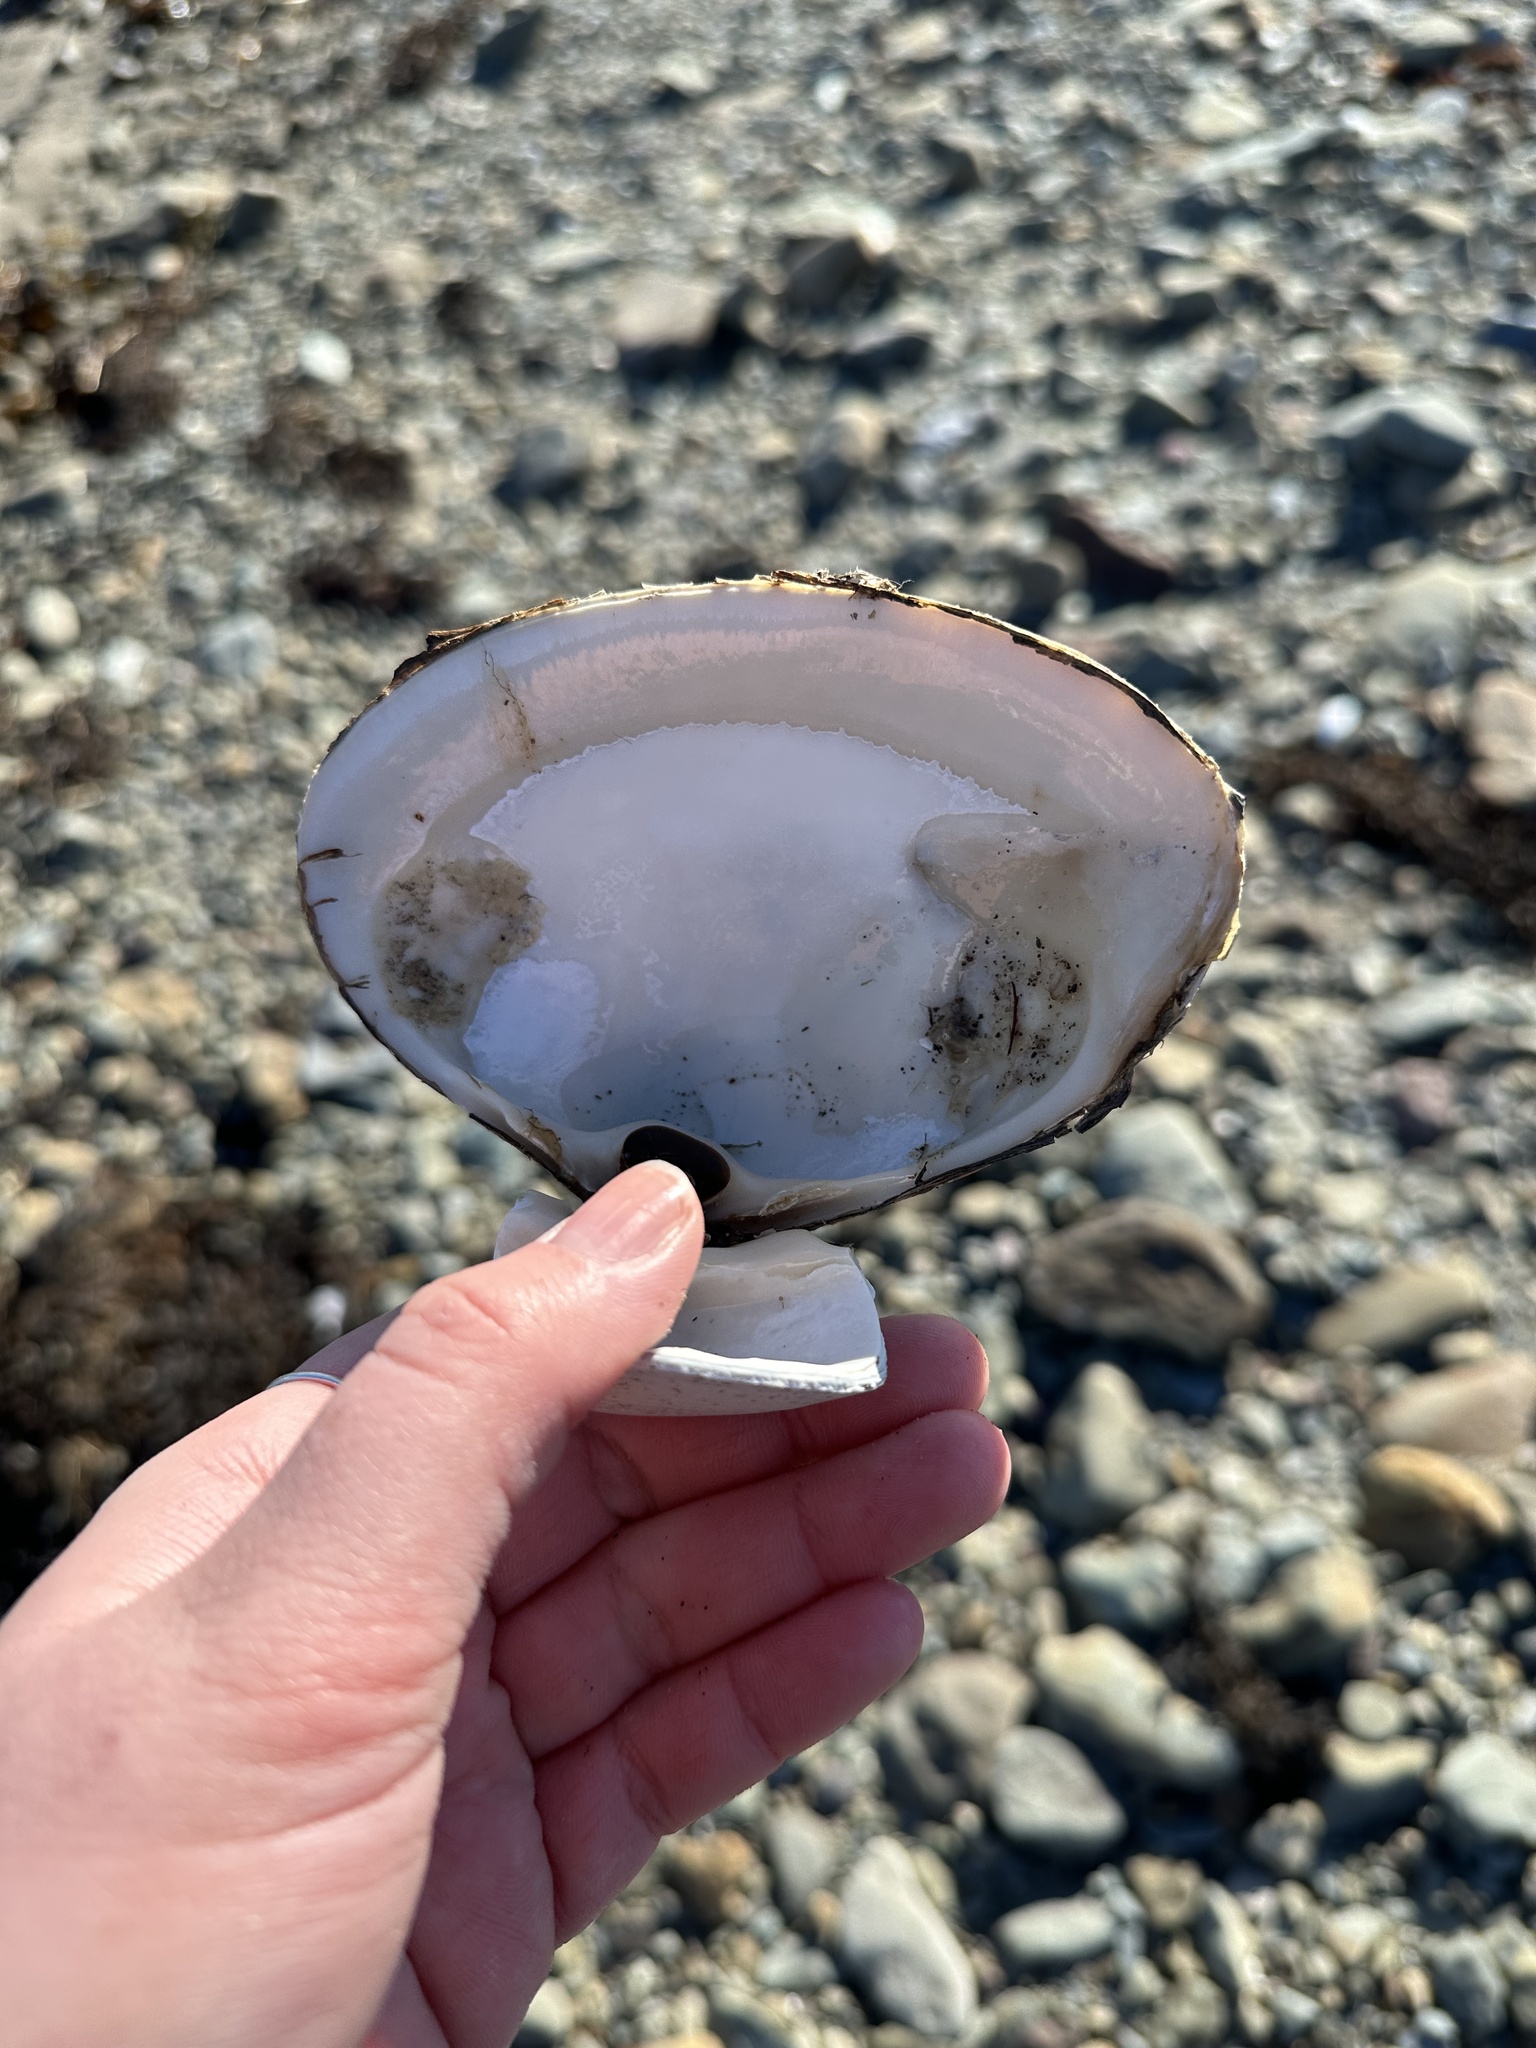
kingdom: Animalia
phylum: Mollusca
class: Bivalvia
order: Venerida
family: Mactridae
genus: Spisula
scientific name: Spisula solidissima
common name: Atlantic surf clam
